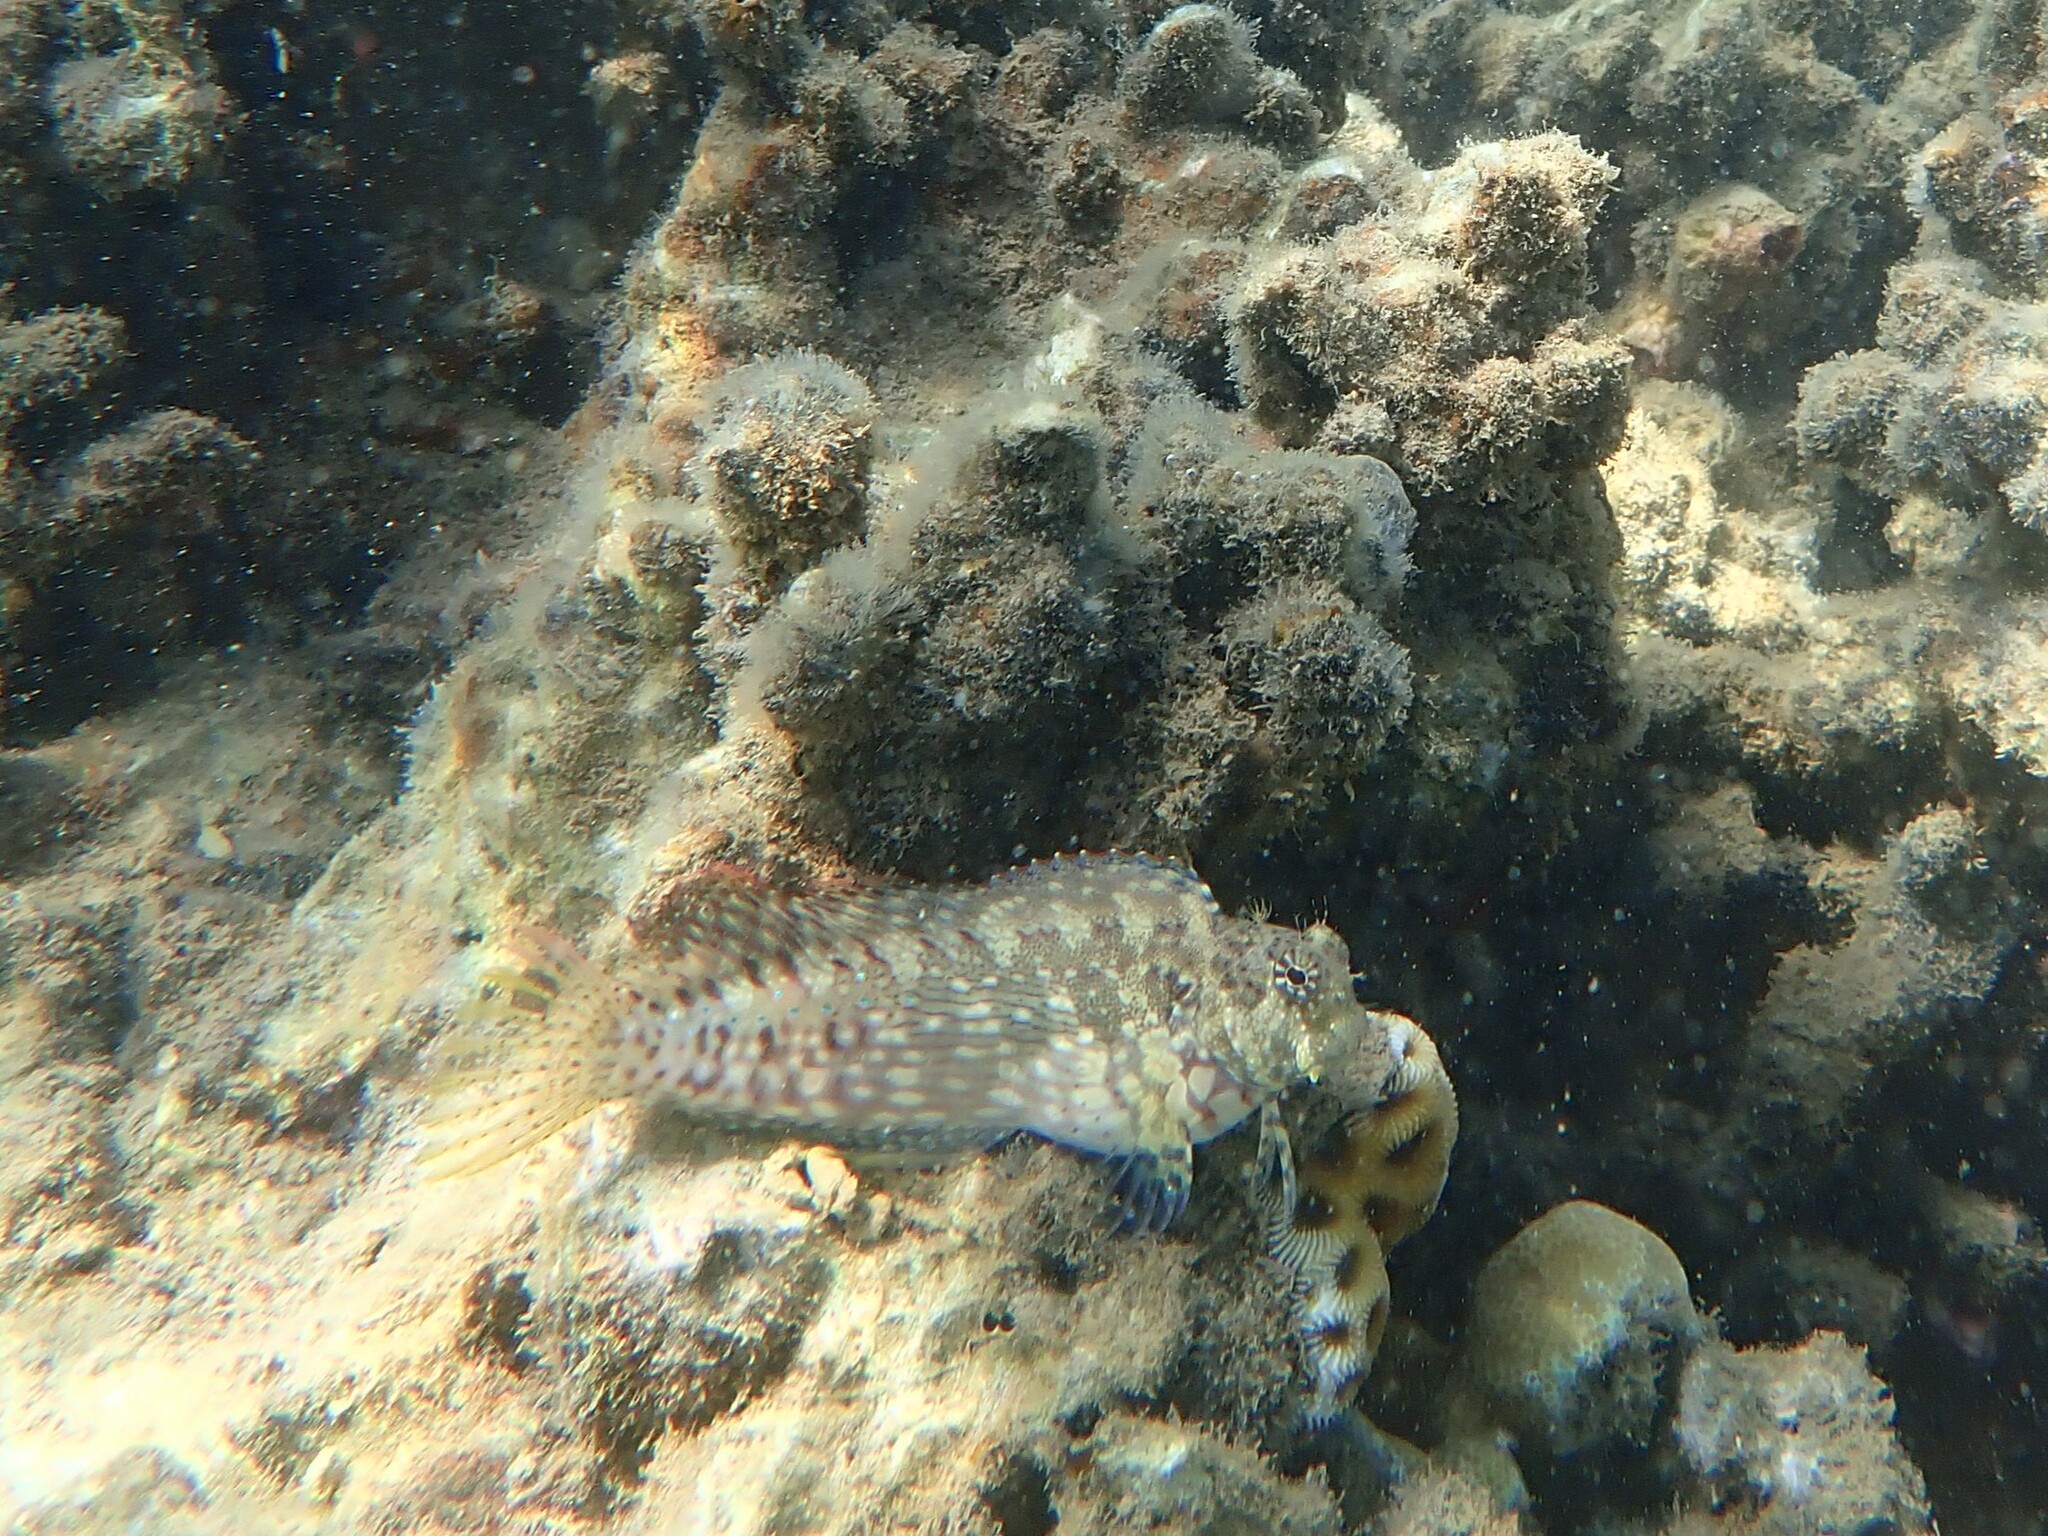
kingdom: Animalia
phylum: Chordata
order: Perciformes
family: Blenniidae
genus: Salarias
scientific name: Salarias fasciatus
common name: Jewelled blenny
